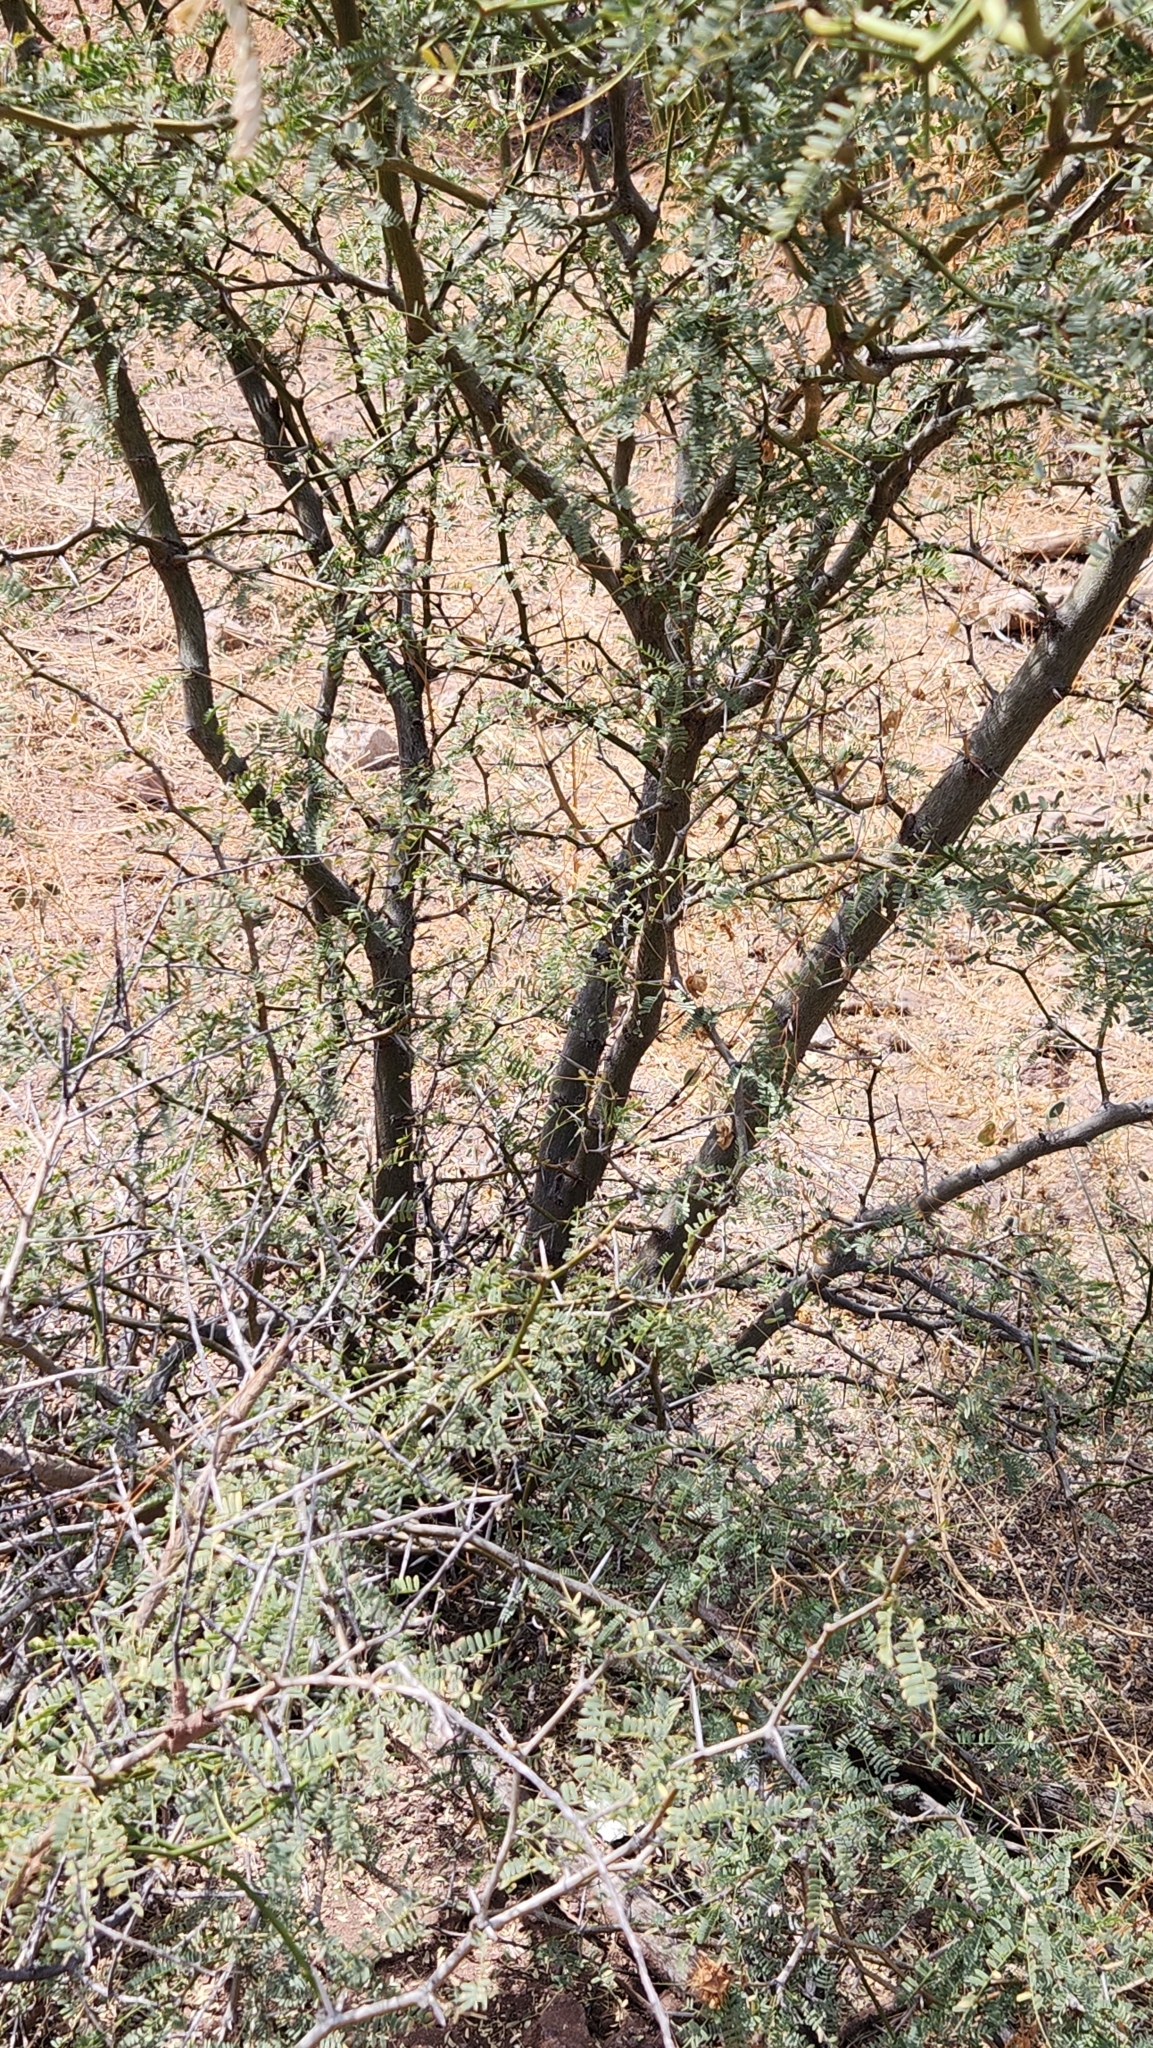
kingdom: Plantae
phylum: Tracheophyta
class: Magnoliopsida
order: Fabales
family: Fabaceae
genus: Prosopis
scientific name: Prosopis articulata
